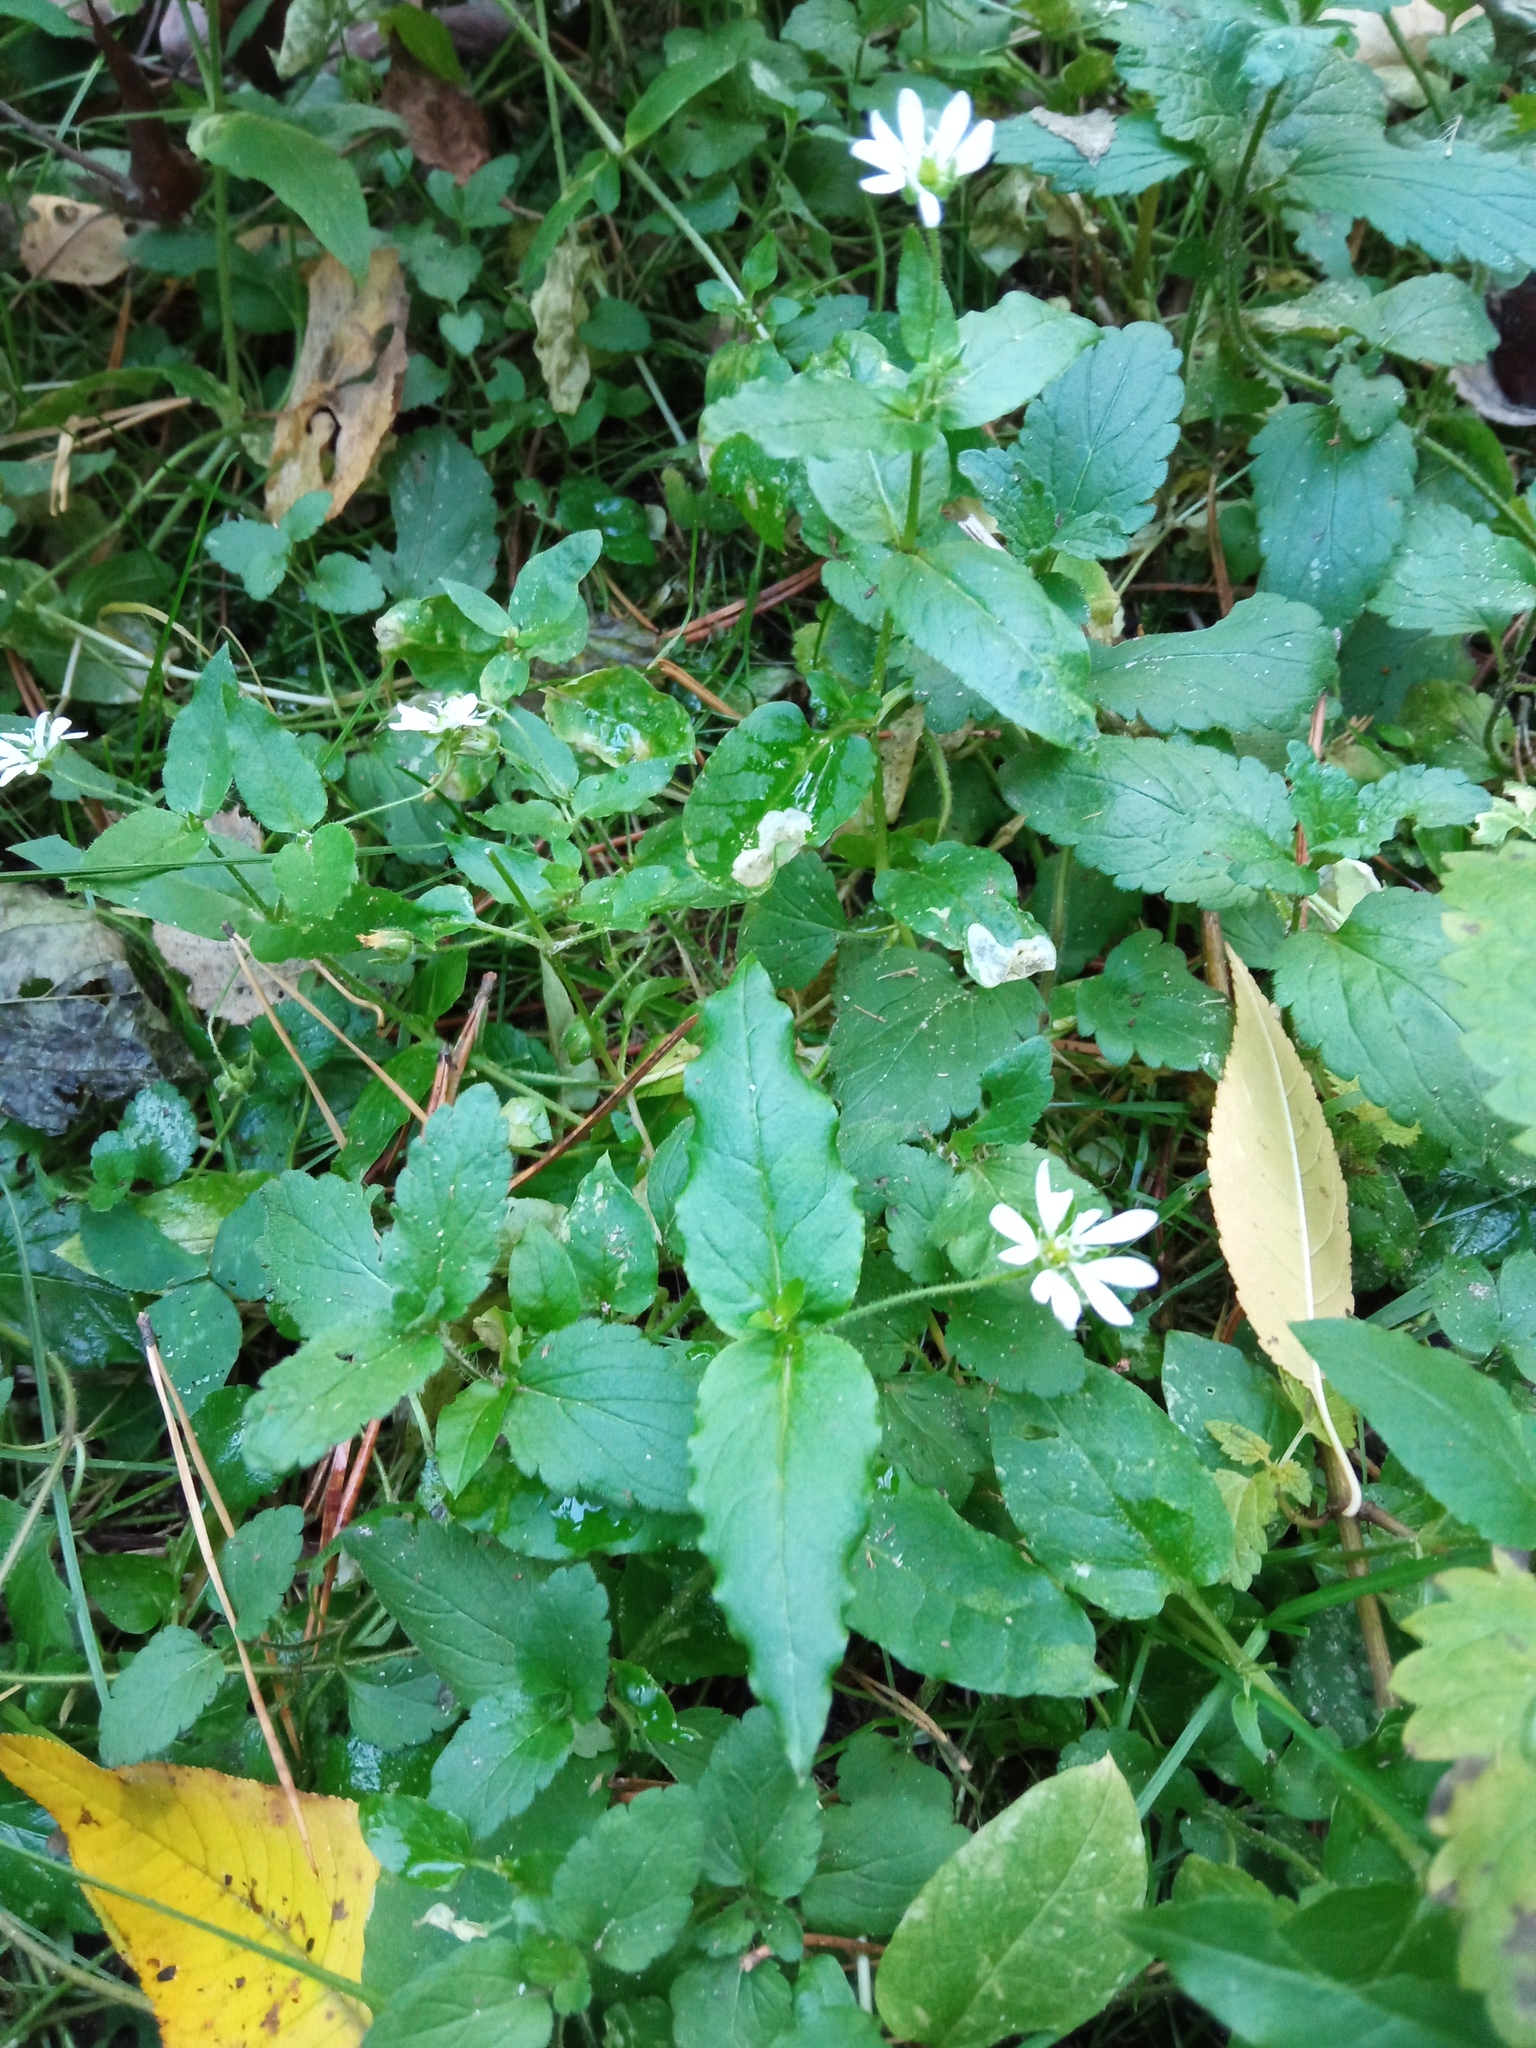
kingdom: Plantae
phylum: Tracheophyta
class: Magnoliopsida
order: Caryophyllales
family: Caryophyllaceae
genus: Stellaria
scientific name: Stellaria aquatica
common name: Water chickweed
